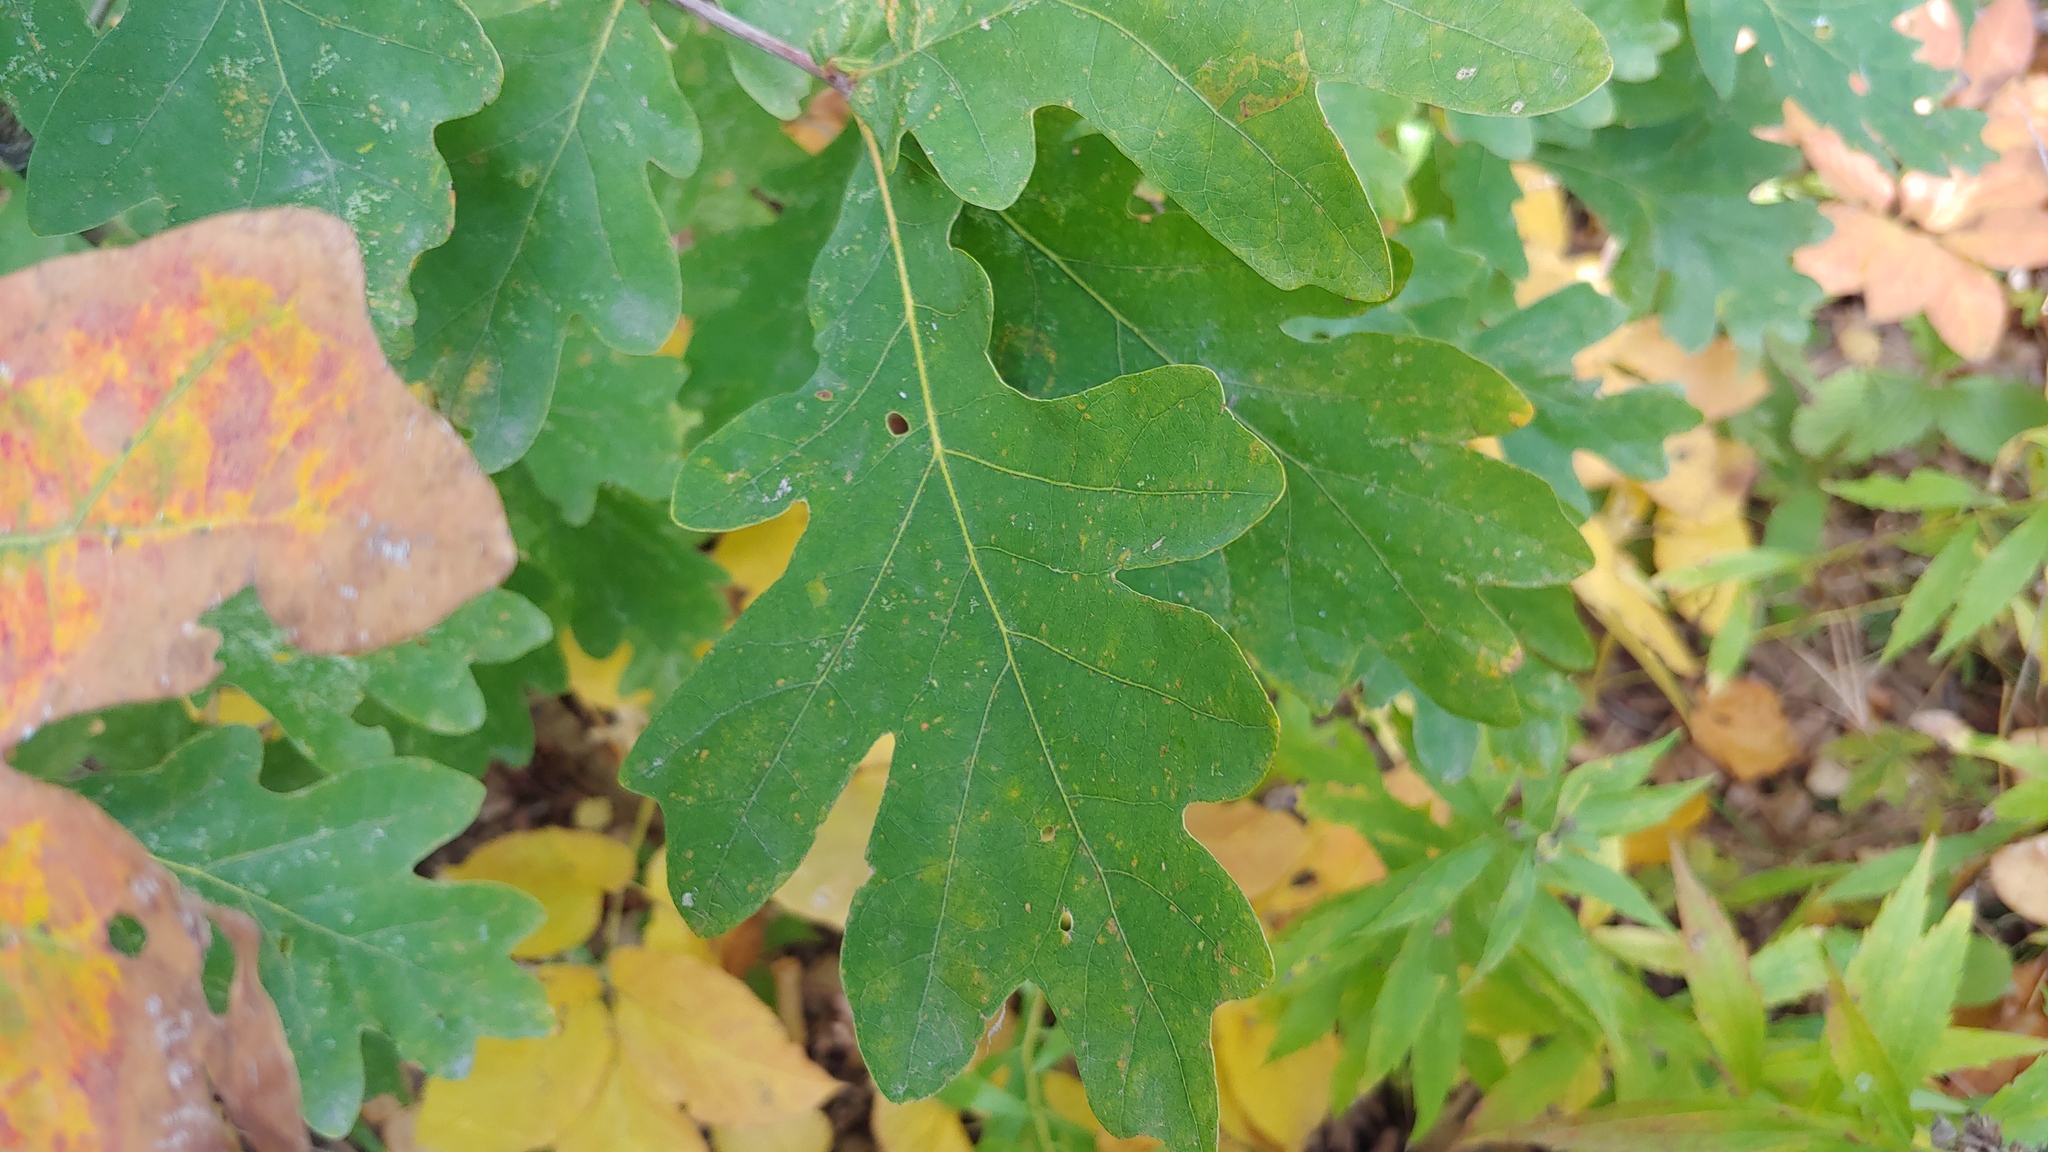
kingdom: Plantae
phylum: Tracheophyta
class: Magnoliopsida
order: Fagales
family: Fagaceae
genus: Quercus
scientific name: Quercus alba
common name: White oak
